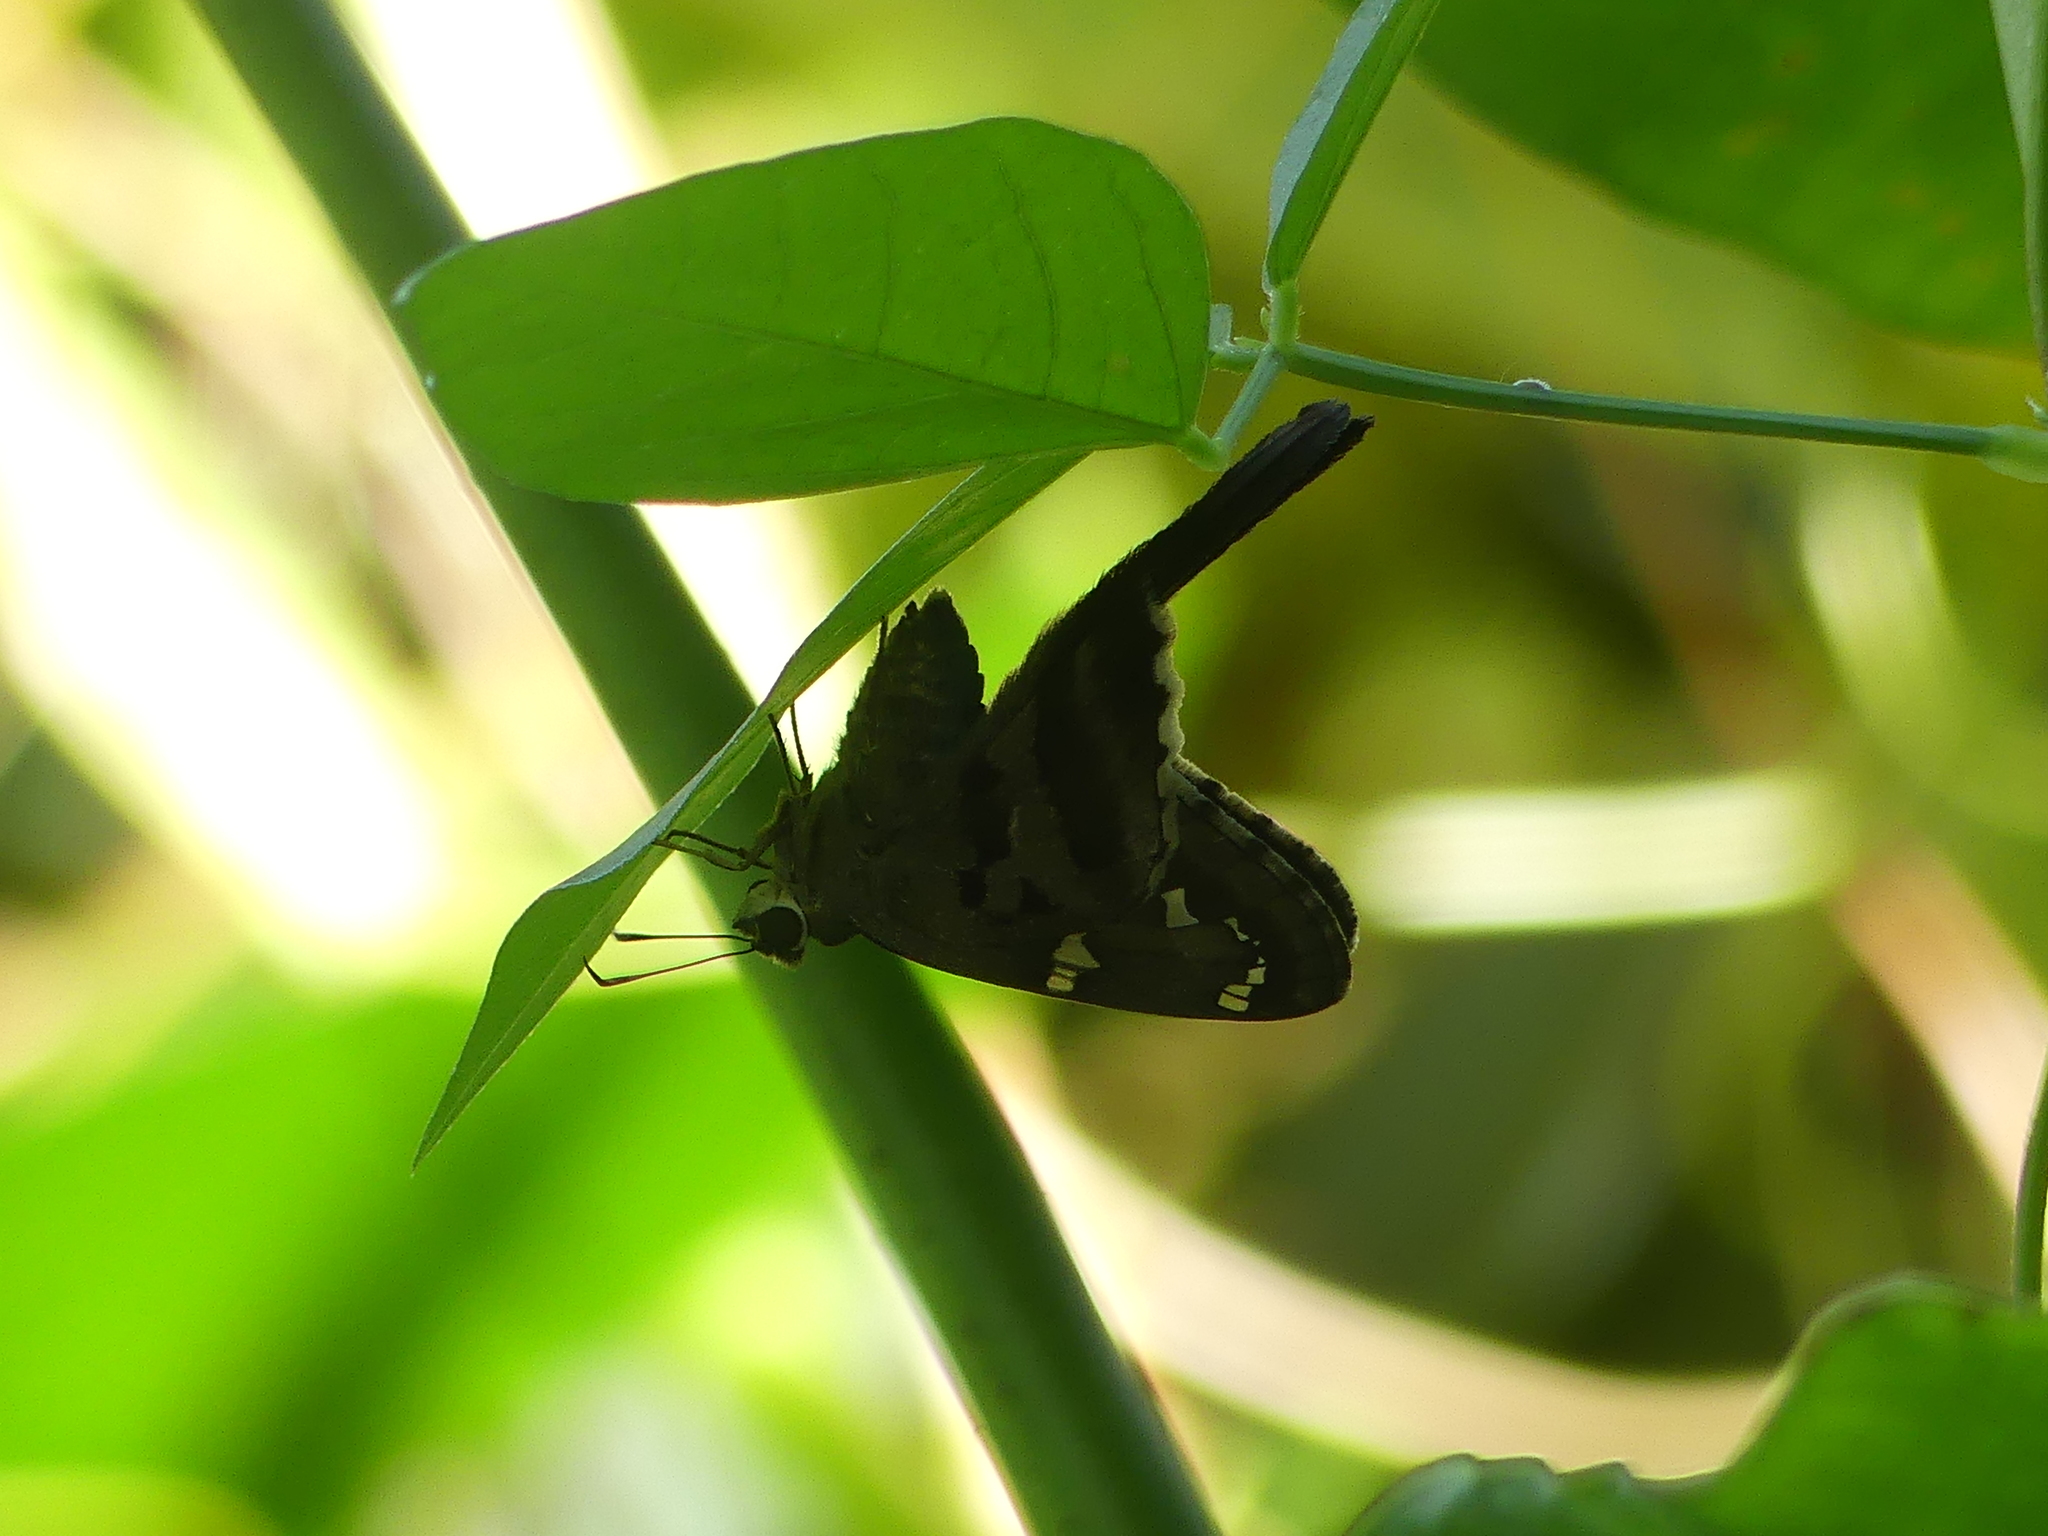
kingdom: Animalia
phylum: Arthropoda
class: Insecta
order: Lepidoptera
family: Hesperiidae
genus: Urbanus
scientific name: Urbanus proteus
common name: Long-tailed skipper
